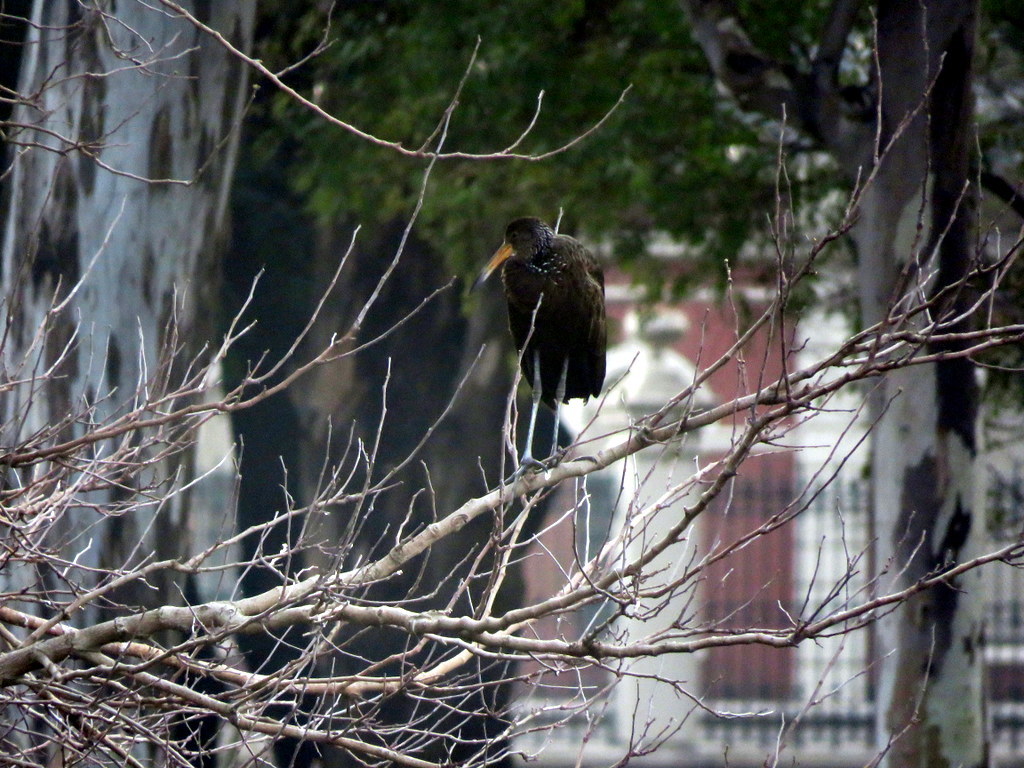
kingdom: Animalia
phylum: Chordata
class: Aves
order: Gruiformes
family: Aramidae
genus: Aramus
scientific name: Aramus guarauna
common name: Limpkin
